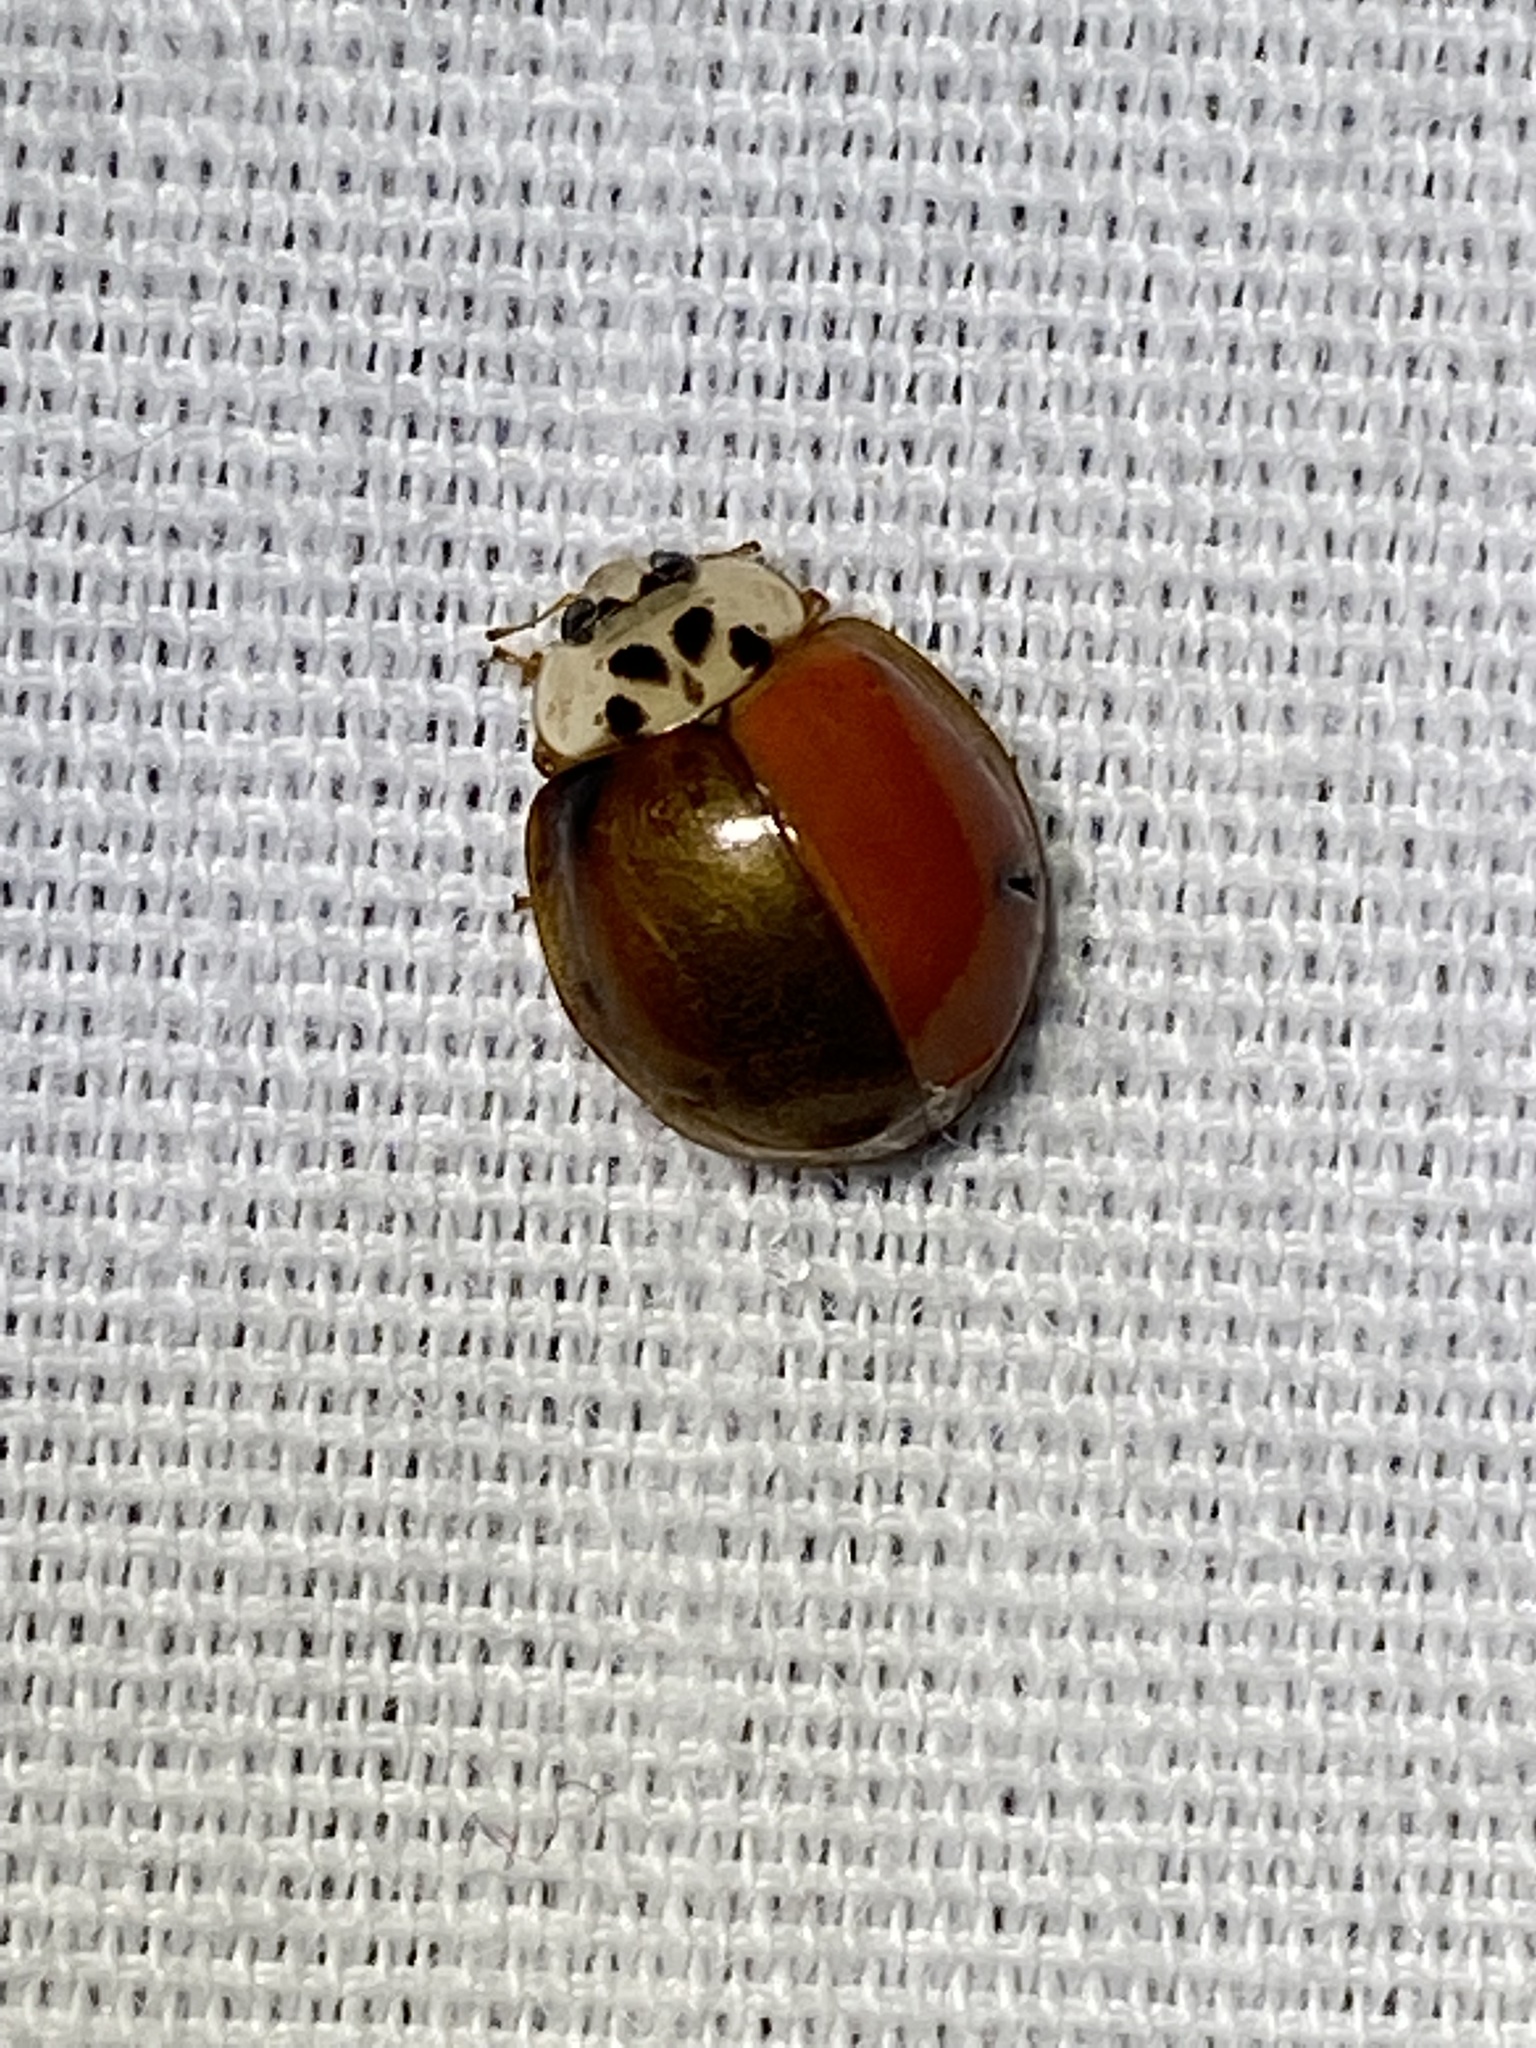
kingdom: Animalia
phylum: Arthropoda
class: Insecta
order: Coleoptera
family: Coccinellidae
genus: Harmonia
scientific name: Harmonia axyridis
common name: Harlequin ladybird
